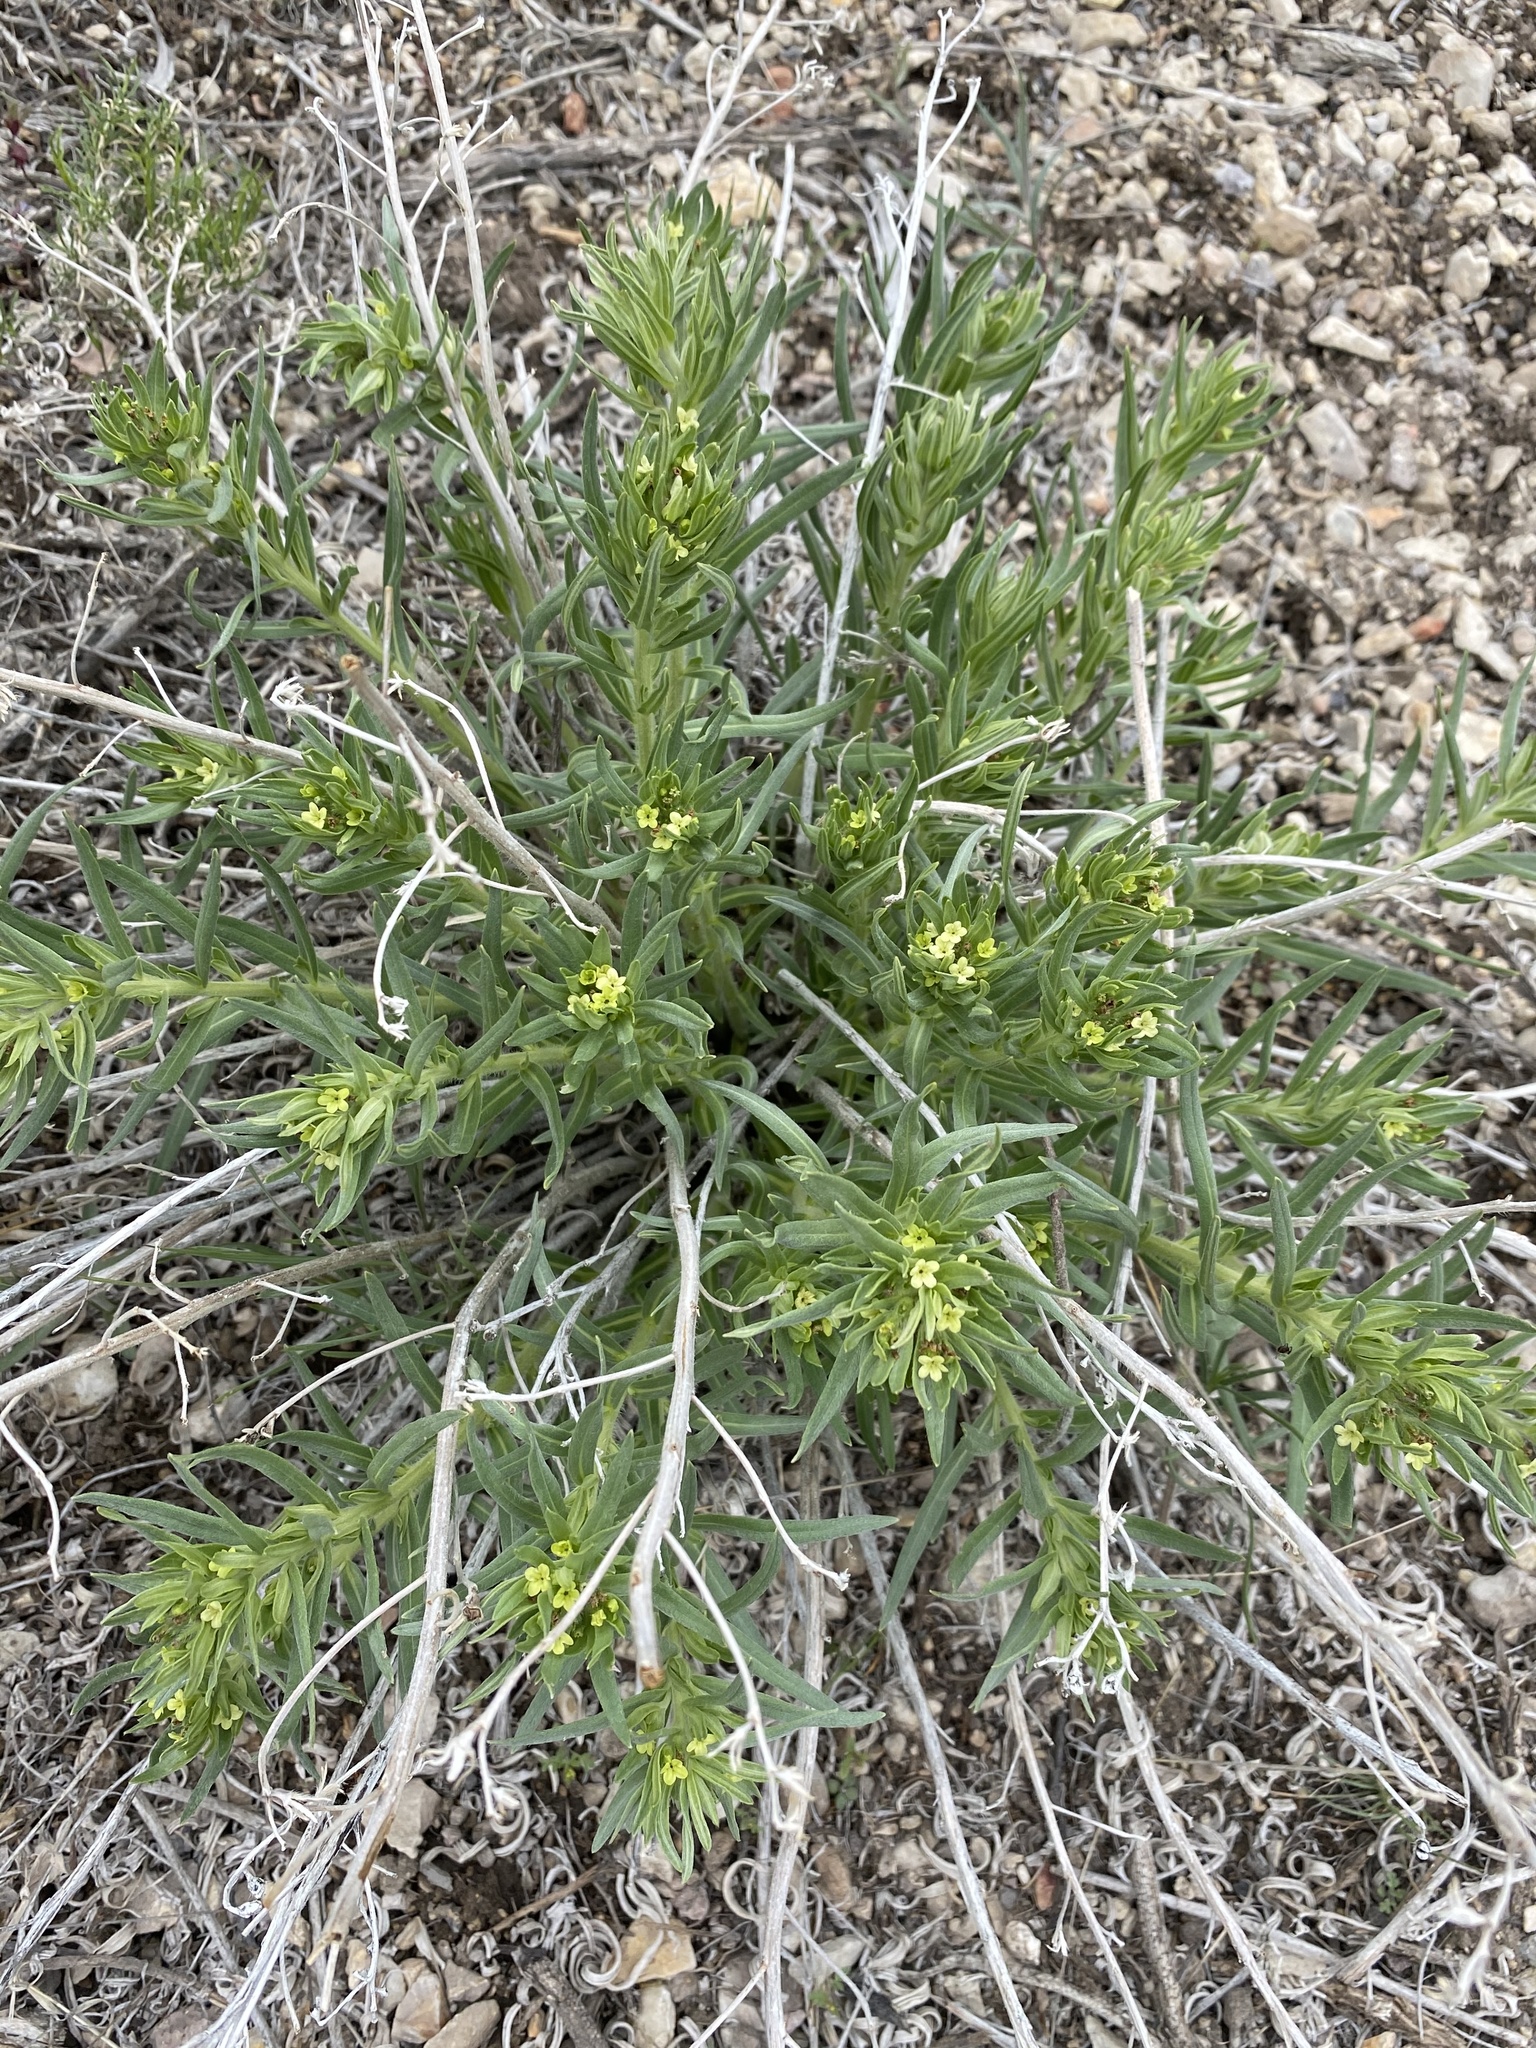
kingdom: Plantae
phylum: Tracheophyta
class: Magnoliopsida
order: Boraginales
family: Boraginaceae
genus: Lithospermum
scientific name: Lithospermum ruderale
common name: Western gromwell
